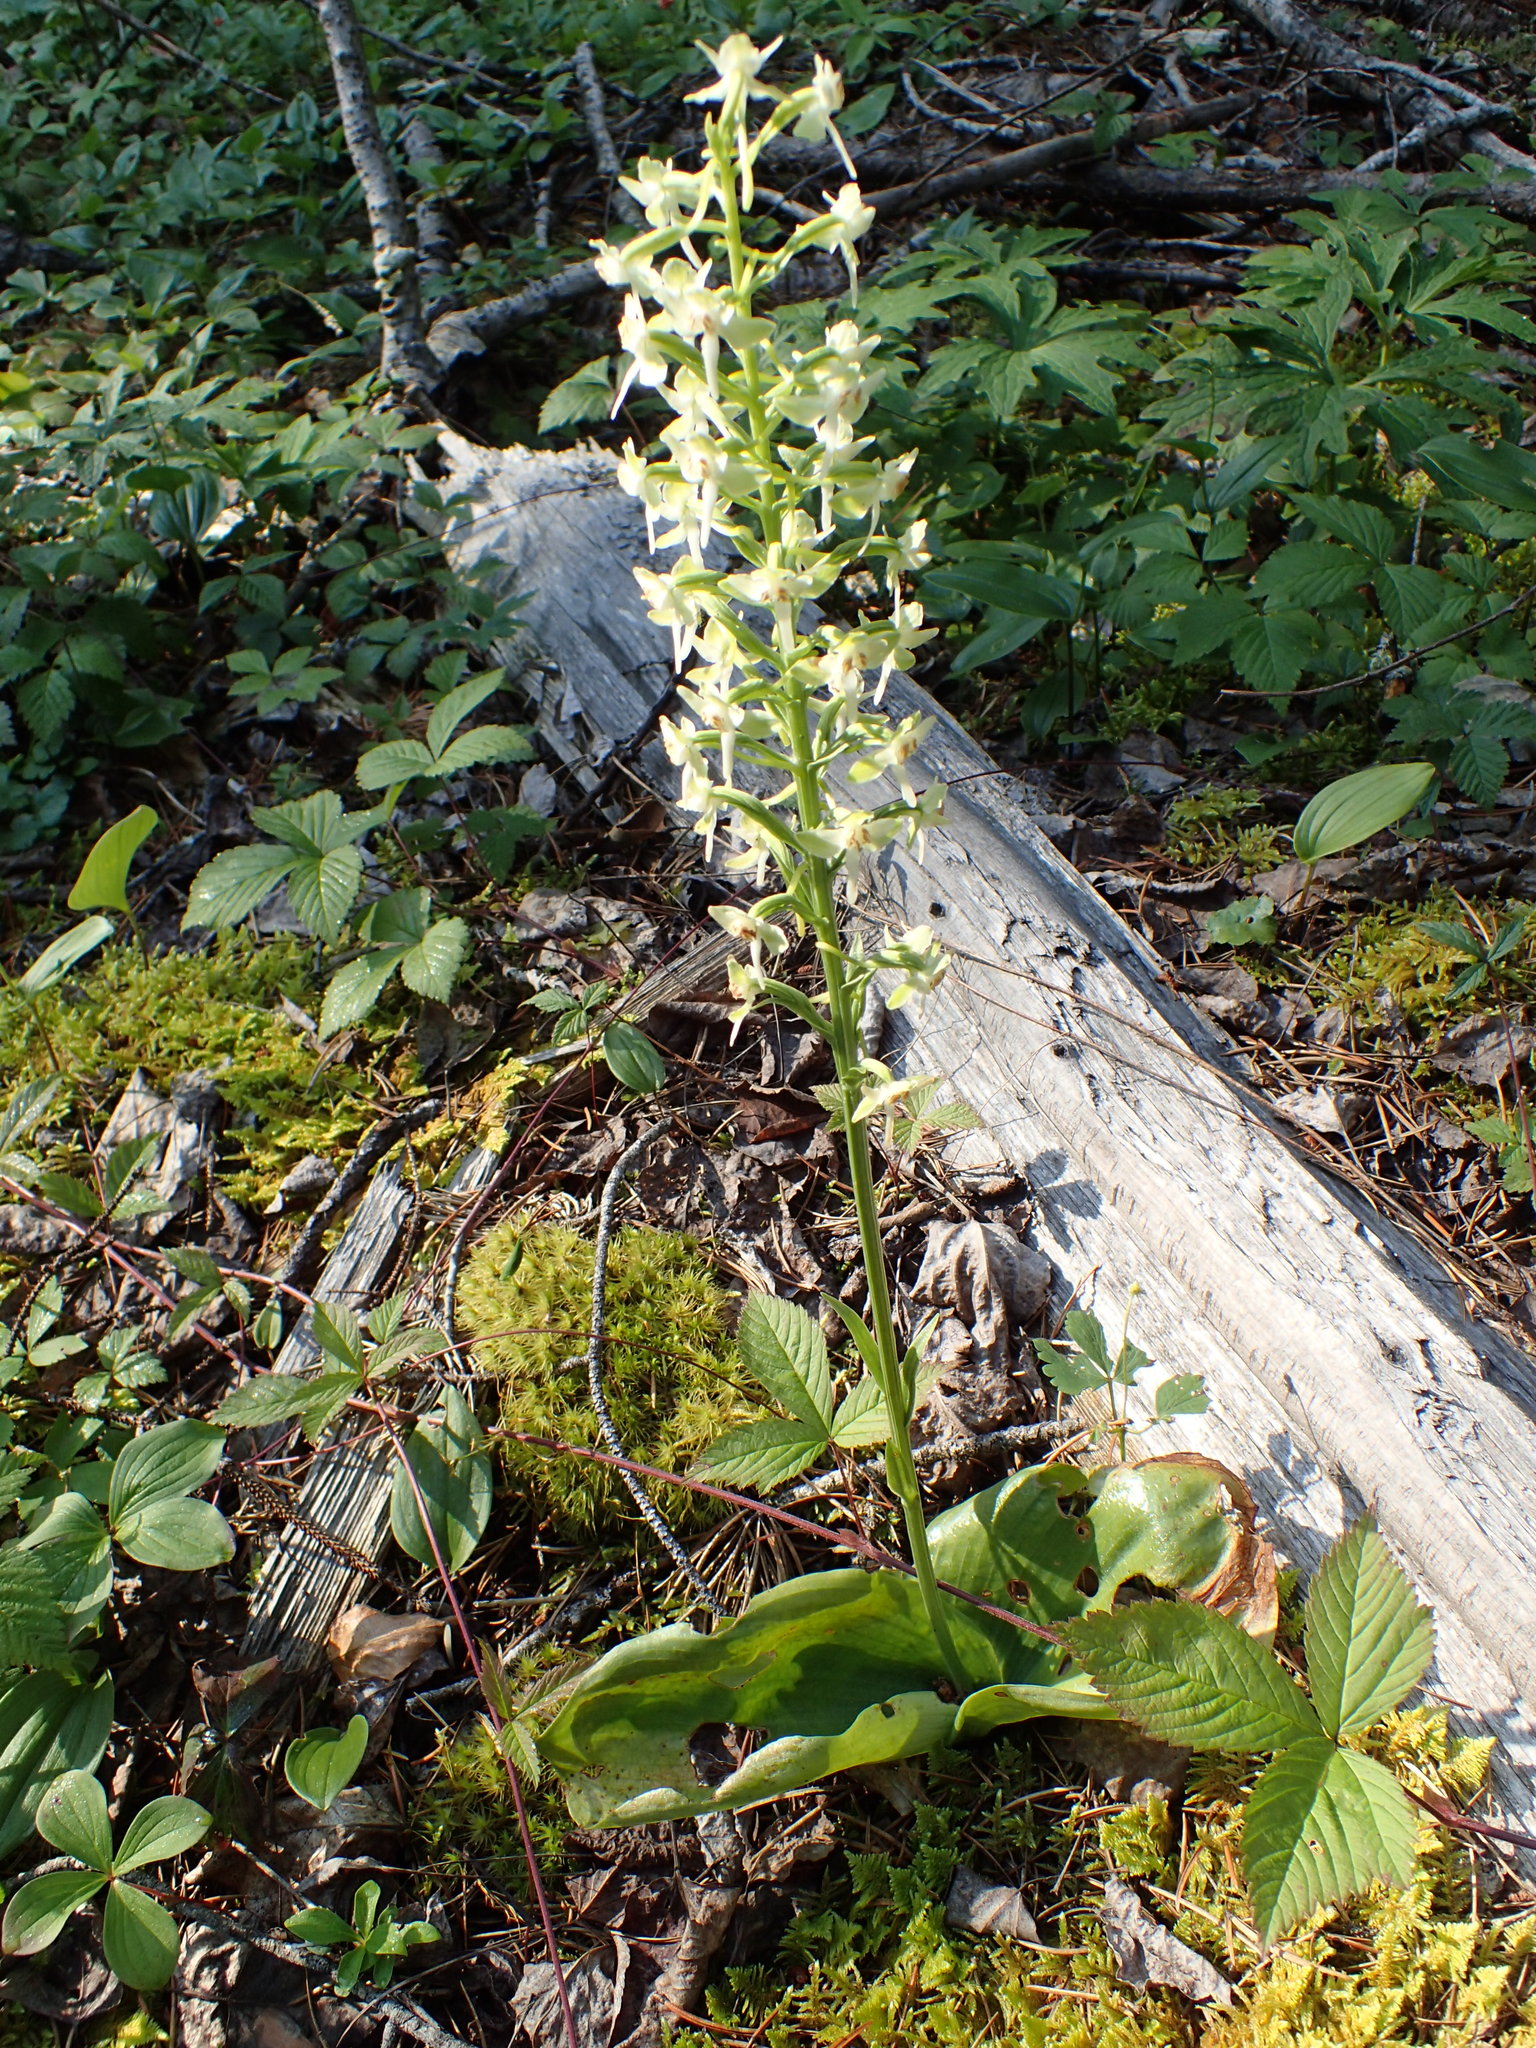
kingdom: Plantae
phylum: Tracheophyta
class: Liliopsida
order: Asparagales
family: Orchidaceae
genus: Platanthera
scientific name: Platanthera orbiculata
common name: Large round-leaved orchid
